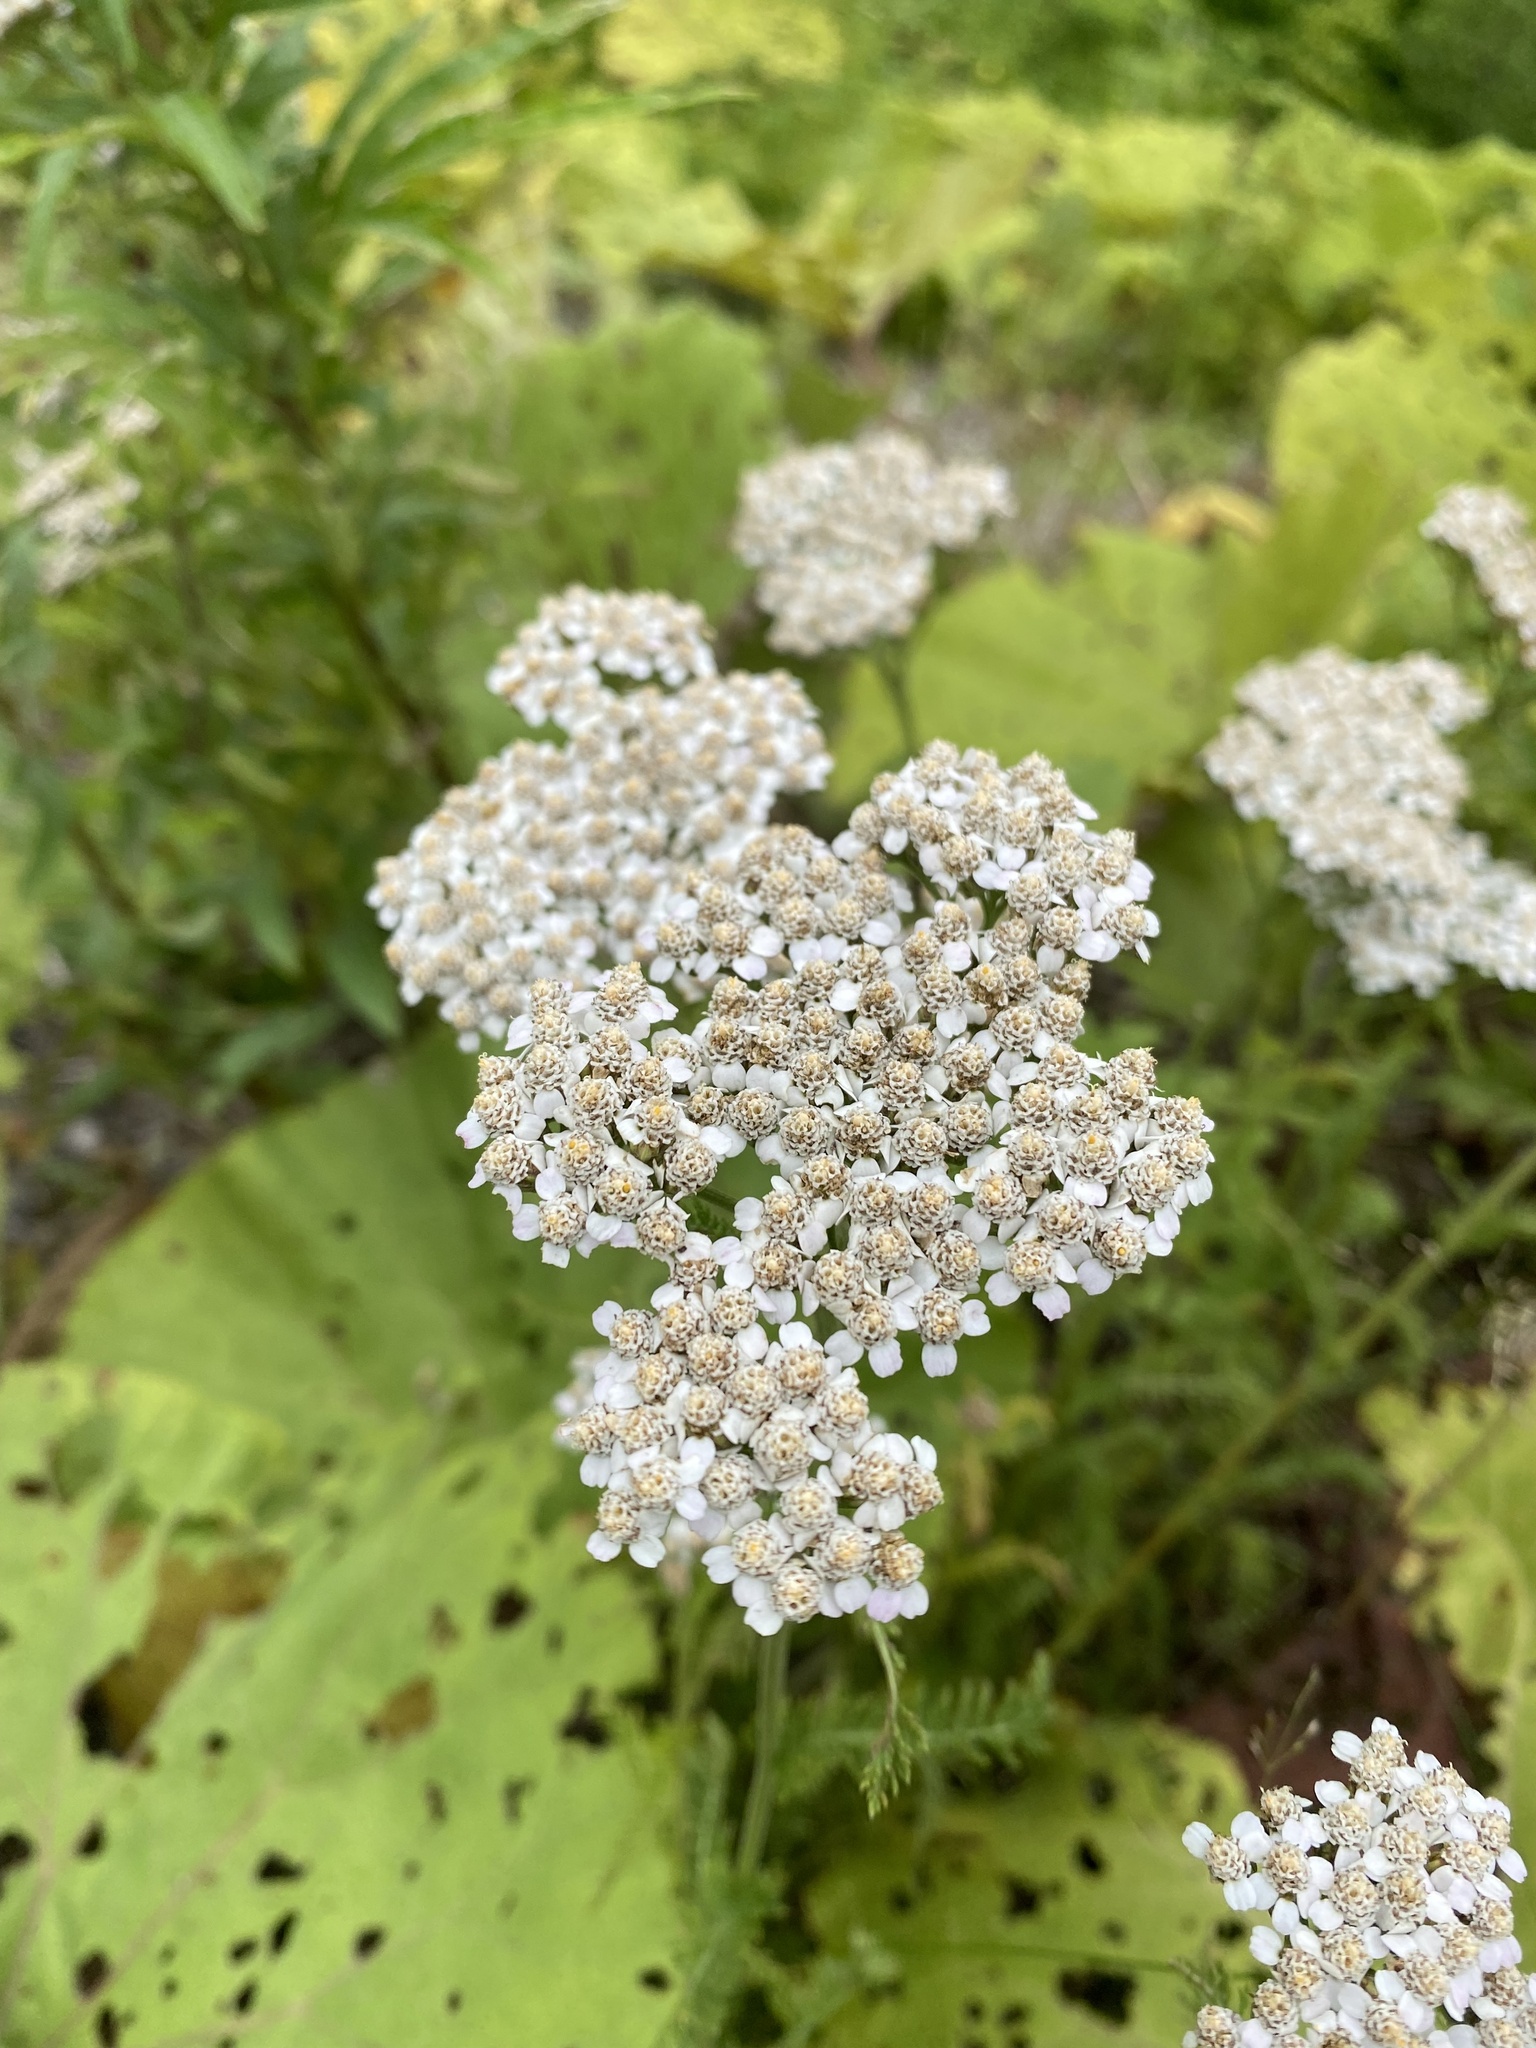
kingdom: Plantae
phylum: Tracheophyta
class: Magnoliopsida
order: Asterales
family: Asteraceae
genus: Achillea
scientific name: Achillea millefolium
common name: Yarrow
